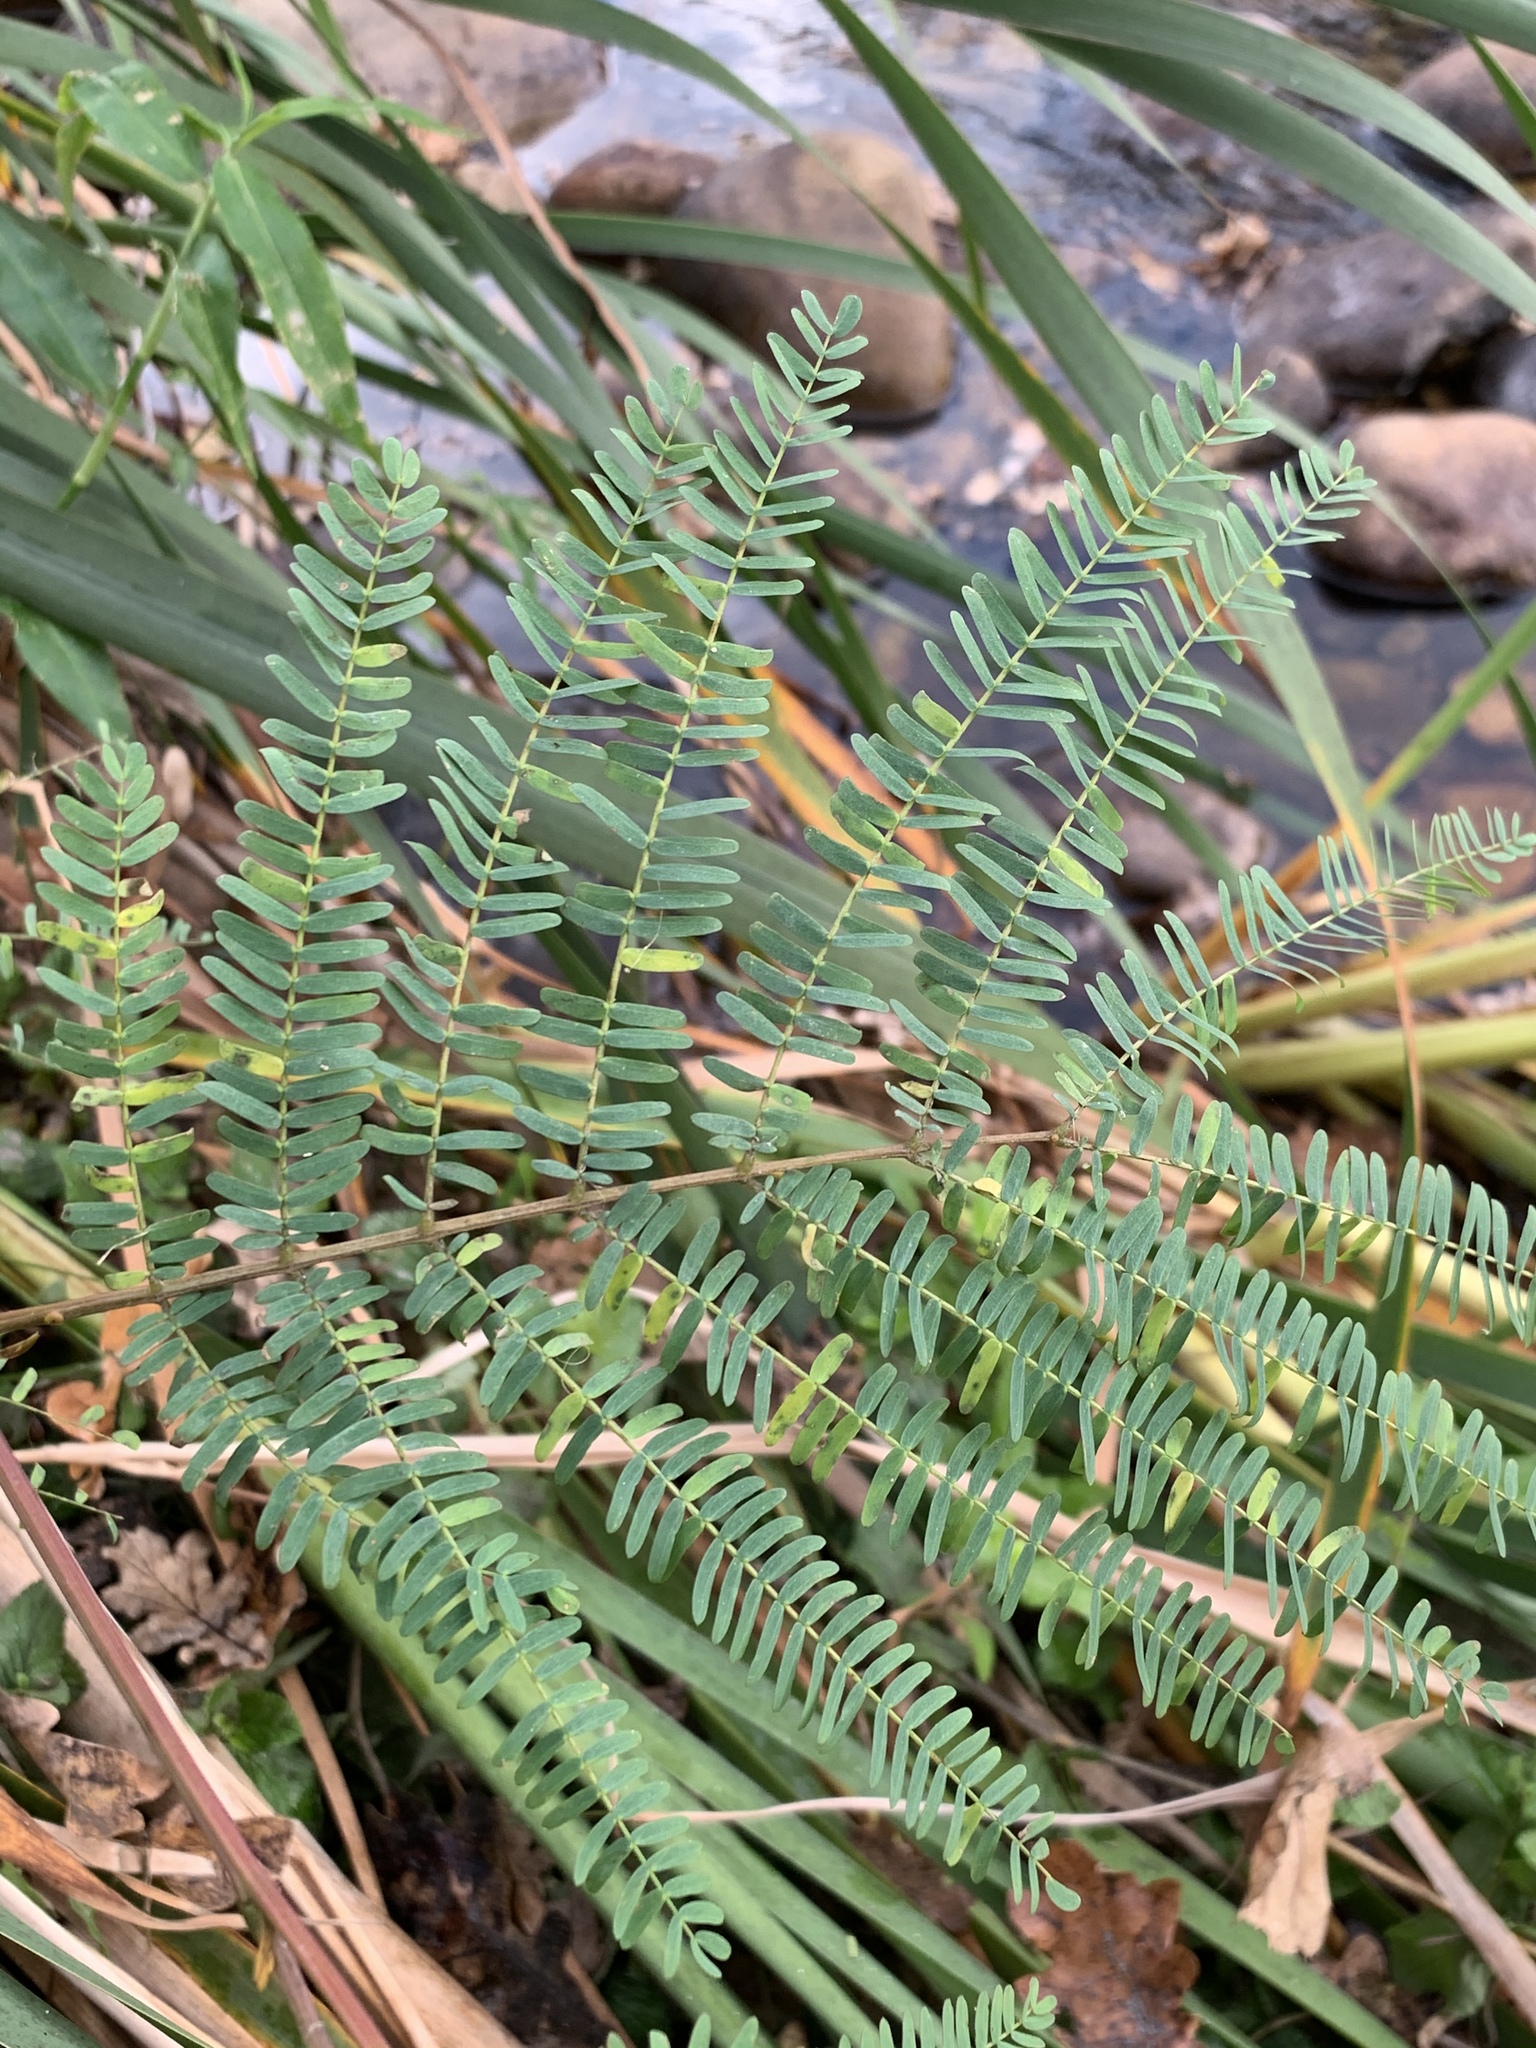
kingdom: Plantae
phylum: Tracheophyta
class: Magnoliopsida
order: Fabales
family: Fabaceae
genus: Paraserianthes
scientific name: Paraserianthes lophantha
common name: Plume albizia
